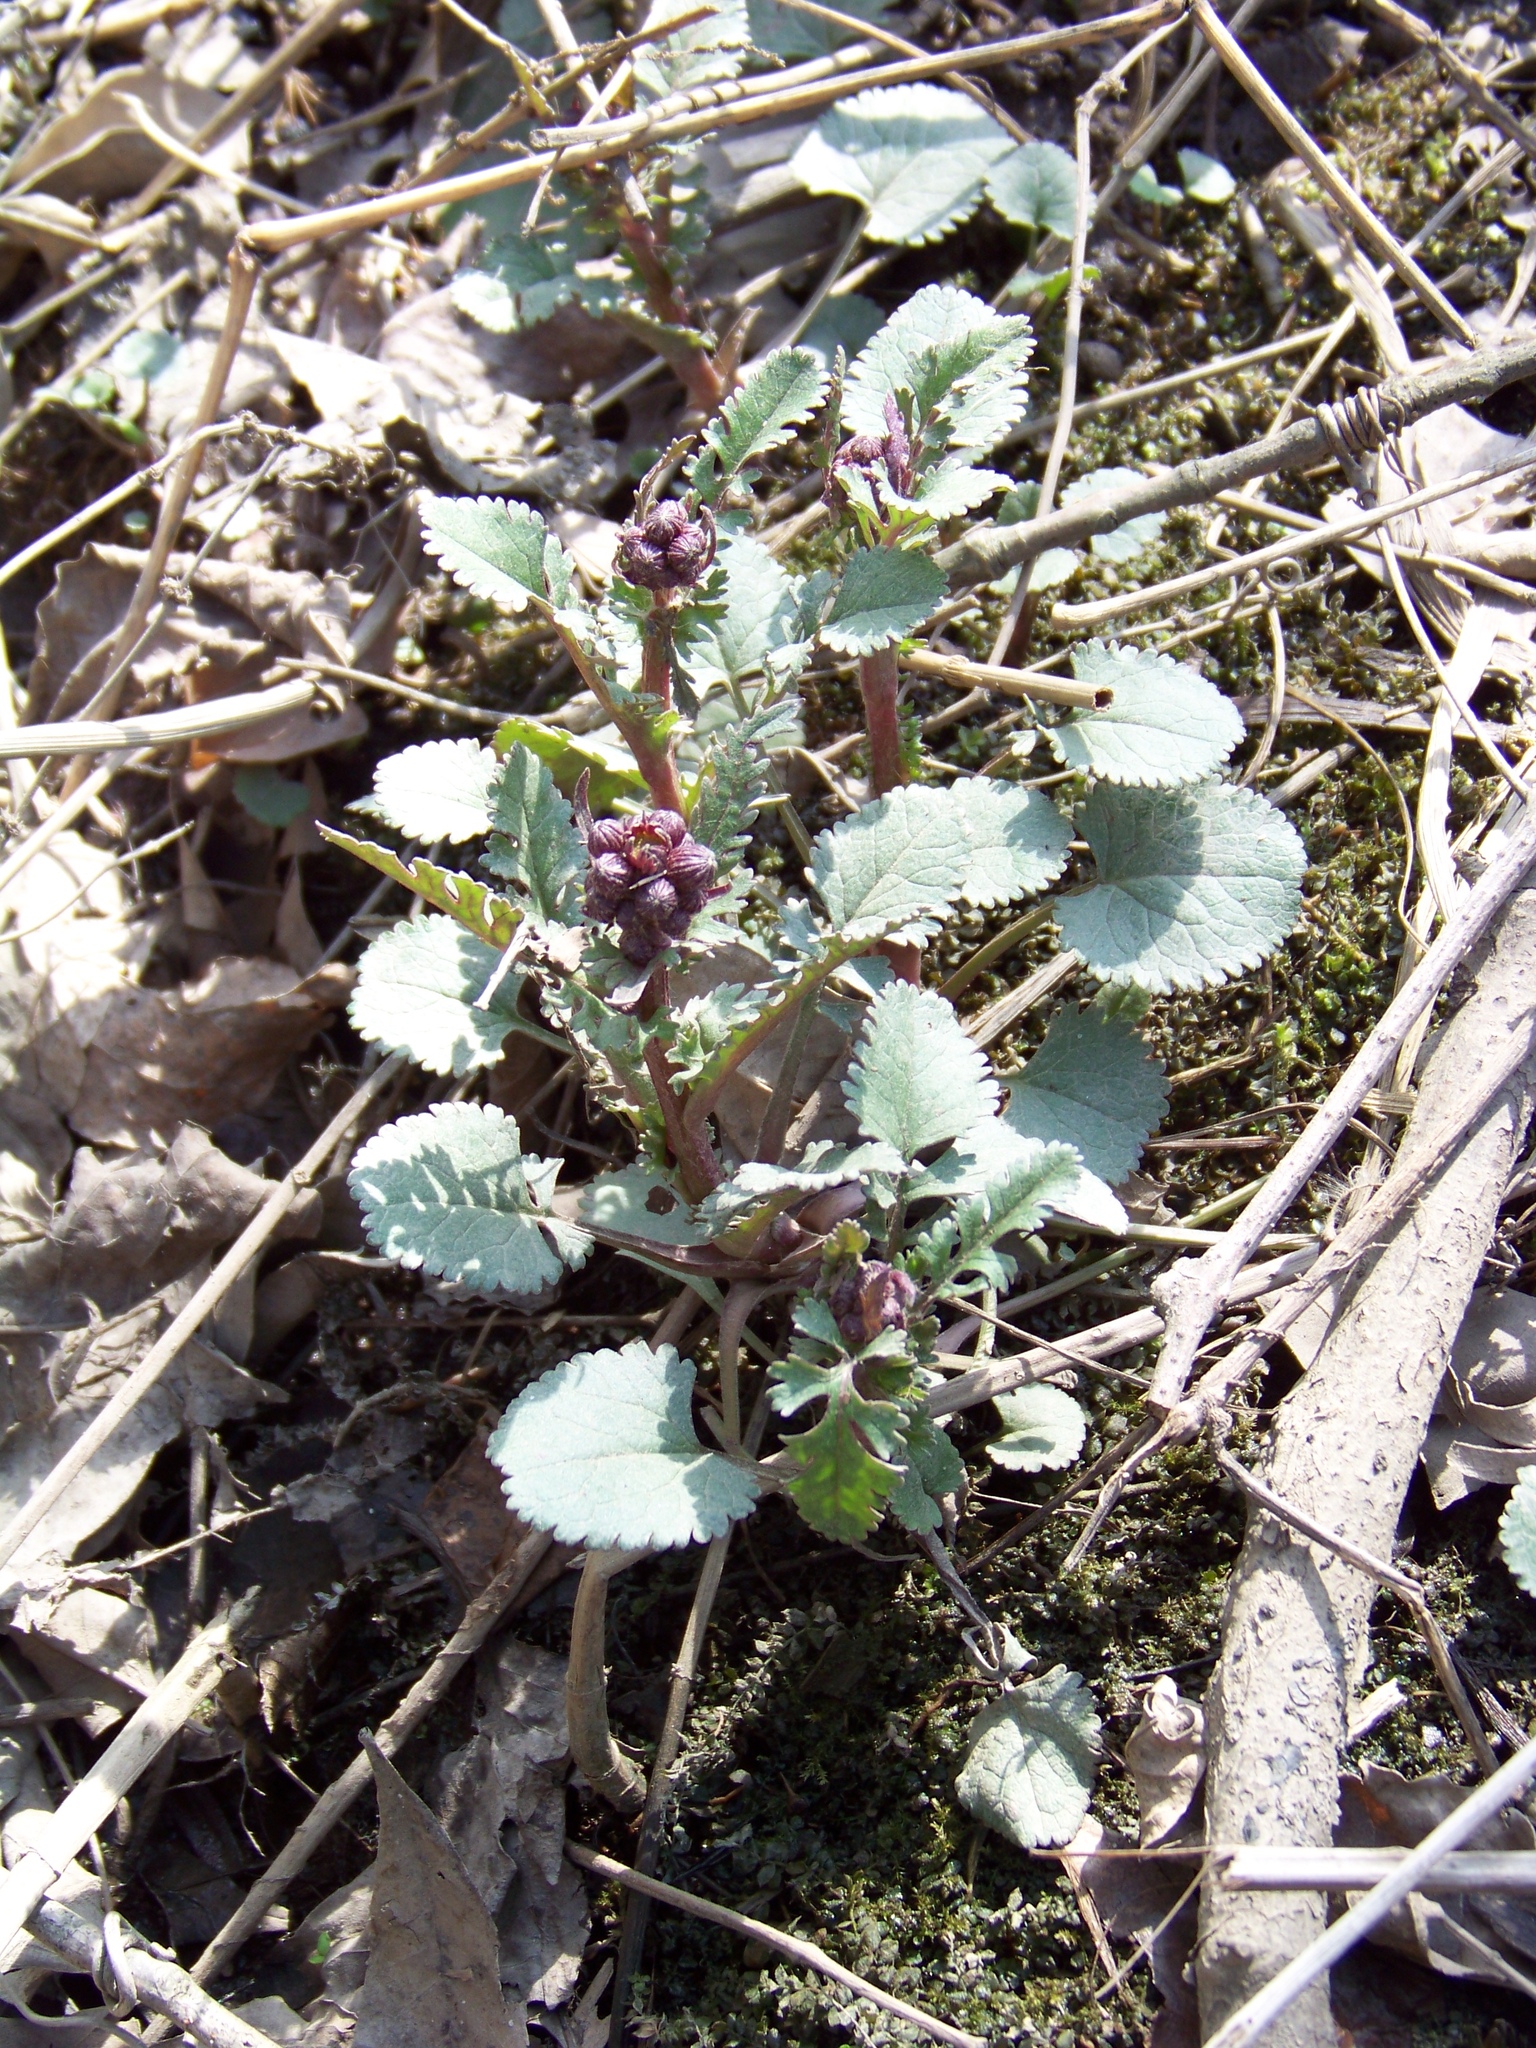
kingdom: Plantae
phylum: Tracheophyta
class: Magnoliopsida
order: Asterales
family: Asteraceae
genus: Packera
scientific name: Packera aurea
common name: Golden groundsel
